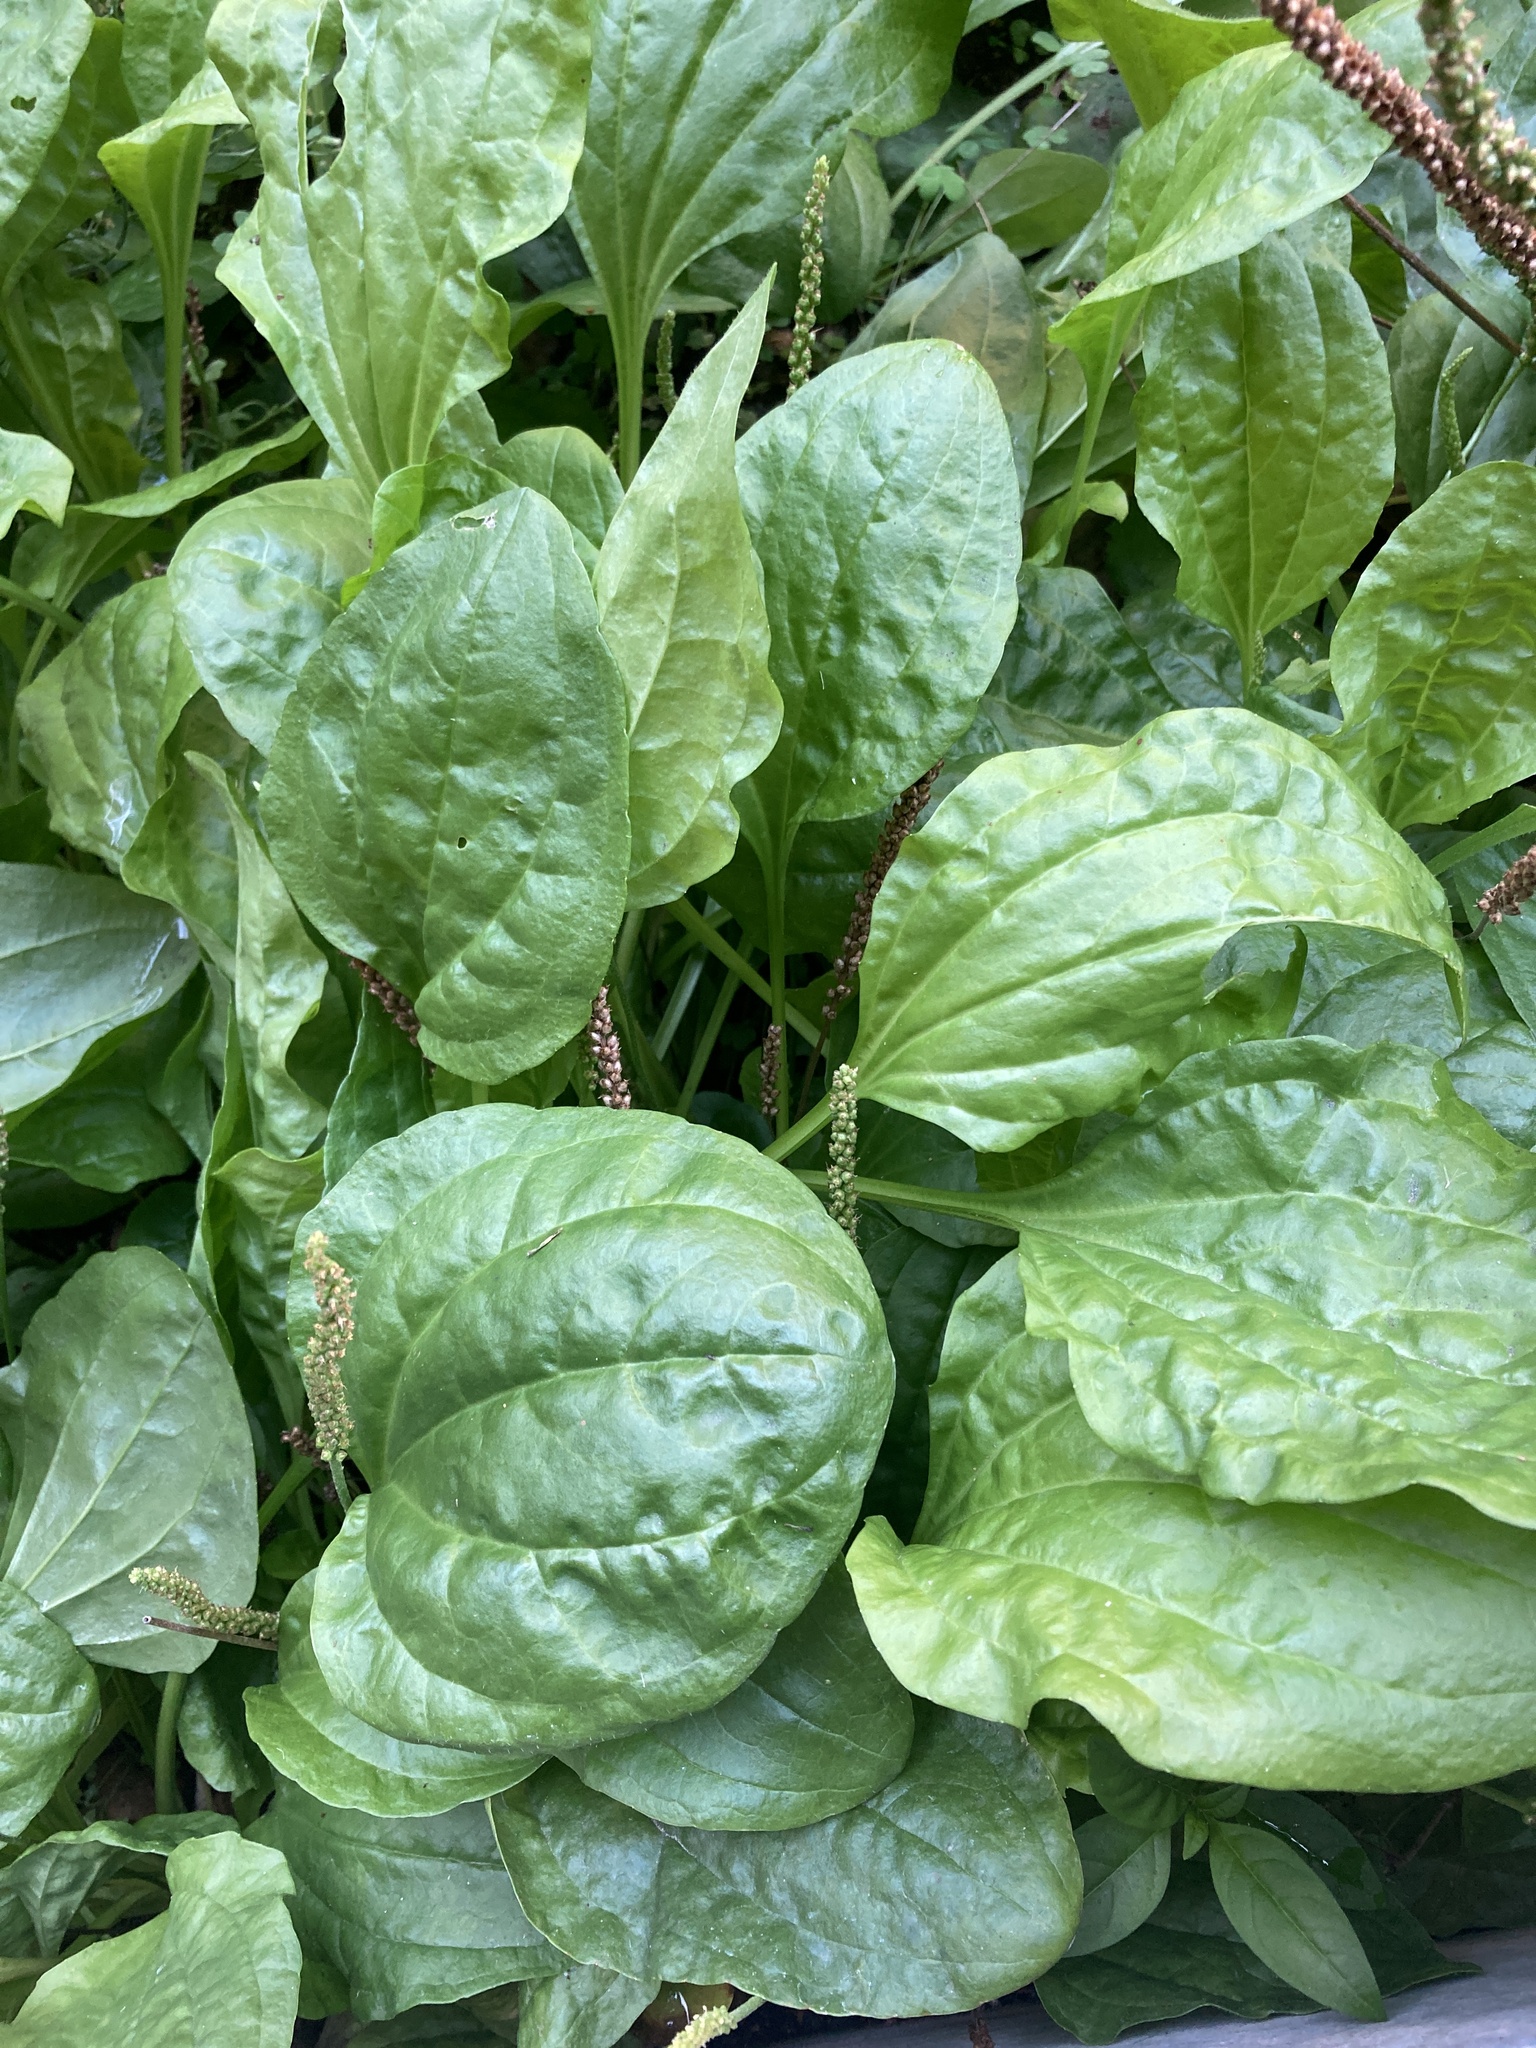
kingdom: Plantae
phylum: Tracheophyta
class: Magnoliopsida
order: Lamiales
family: Plantaginaceae
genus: Plantago
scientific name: Plantago major
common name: Common plantain
